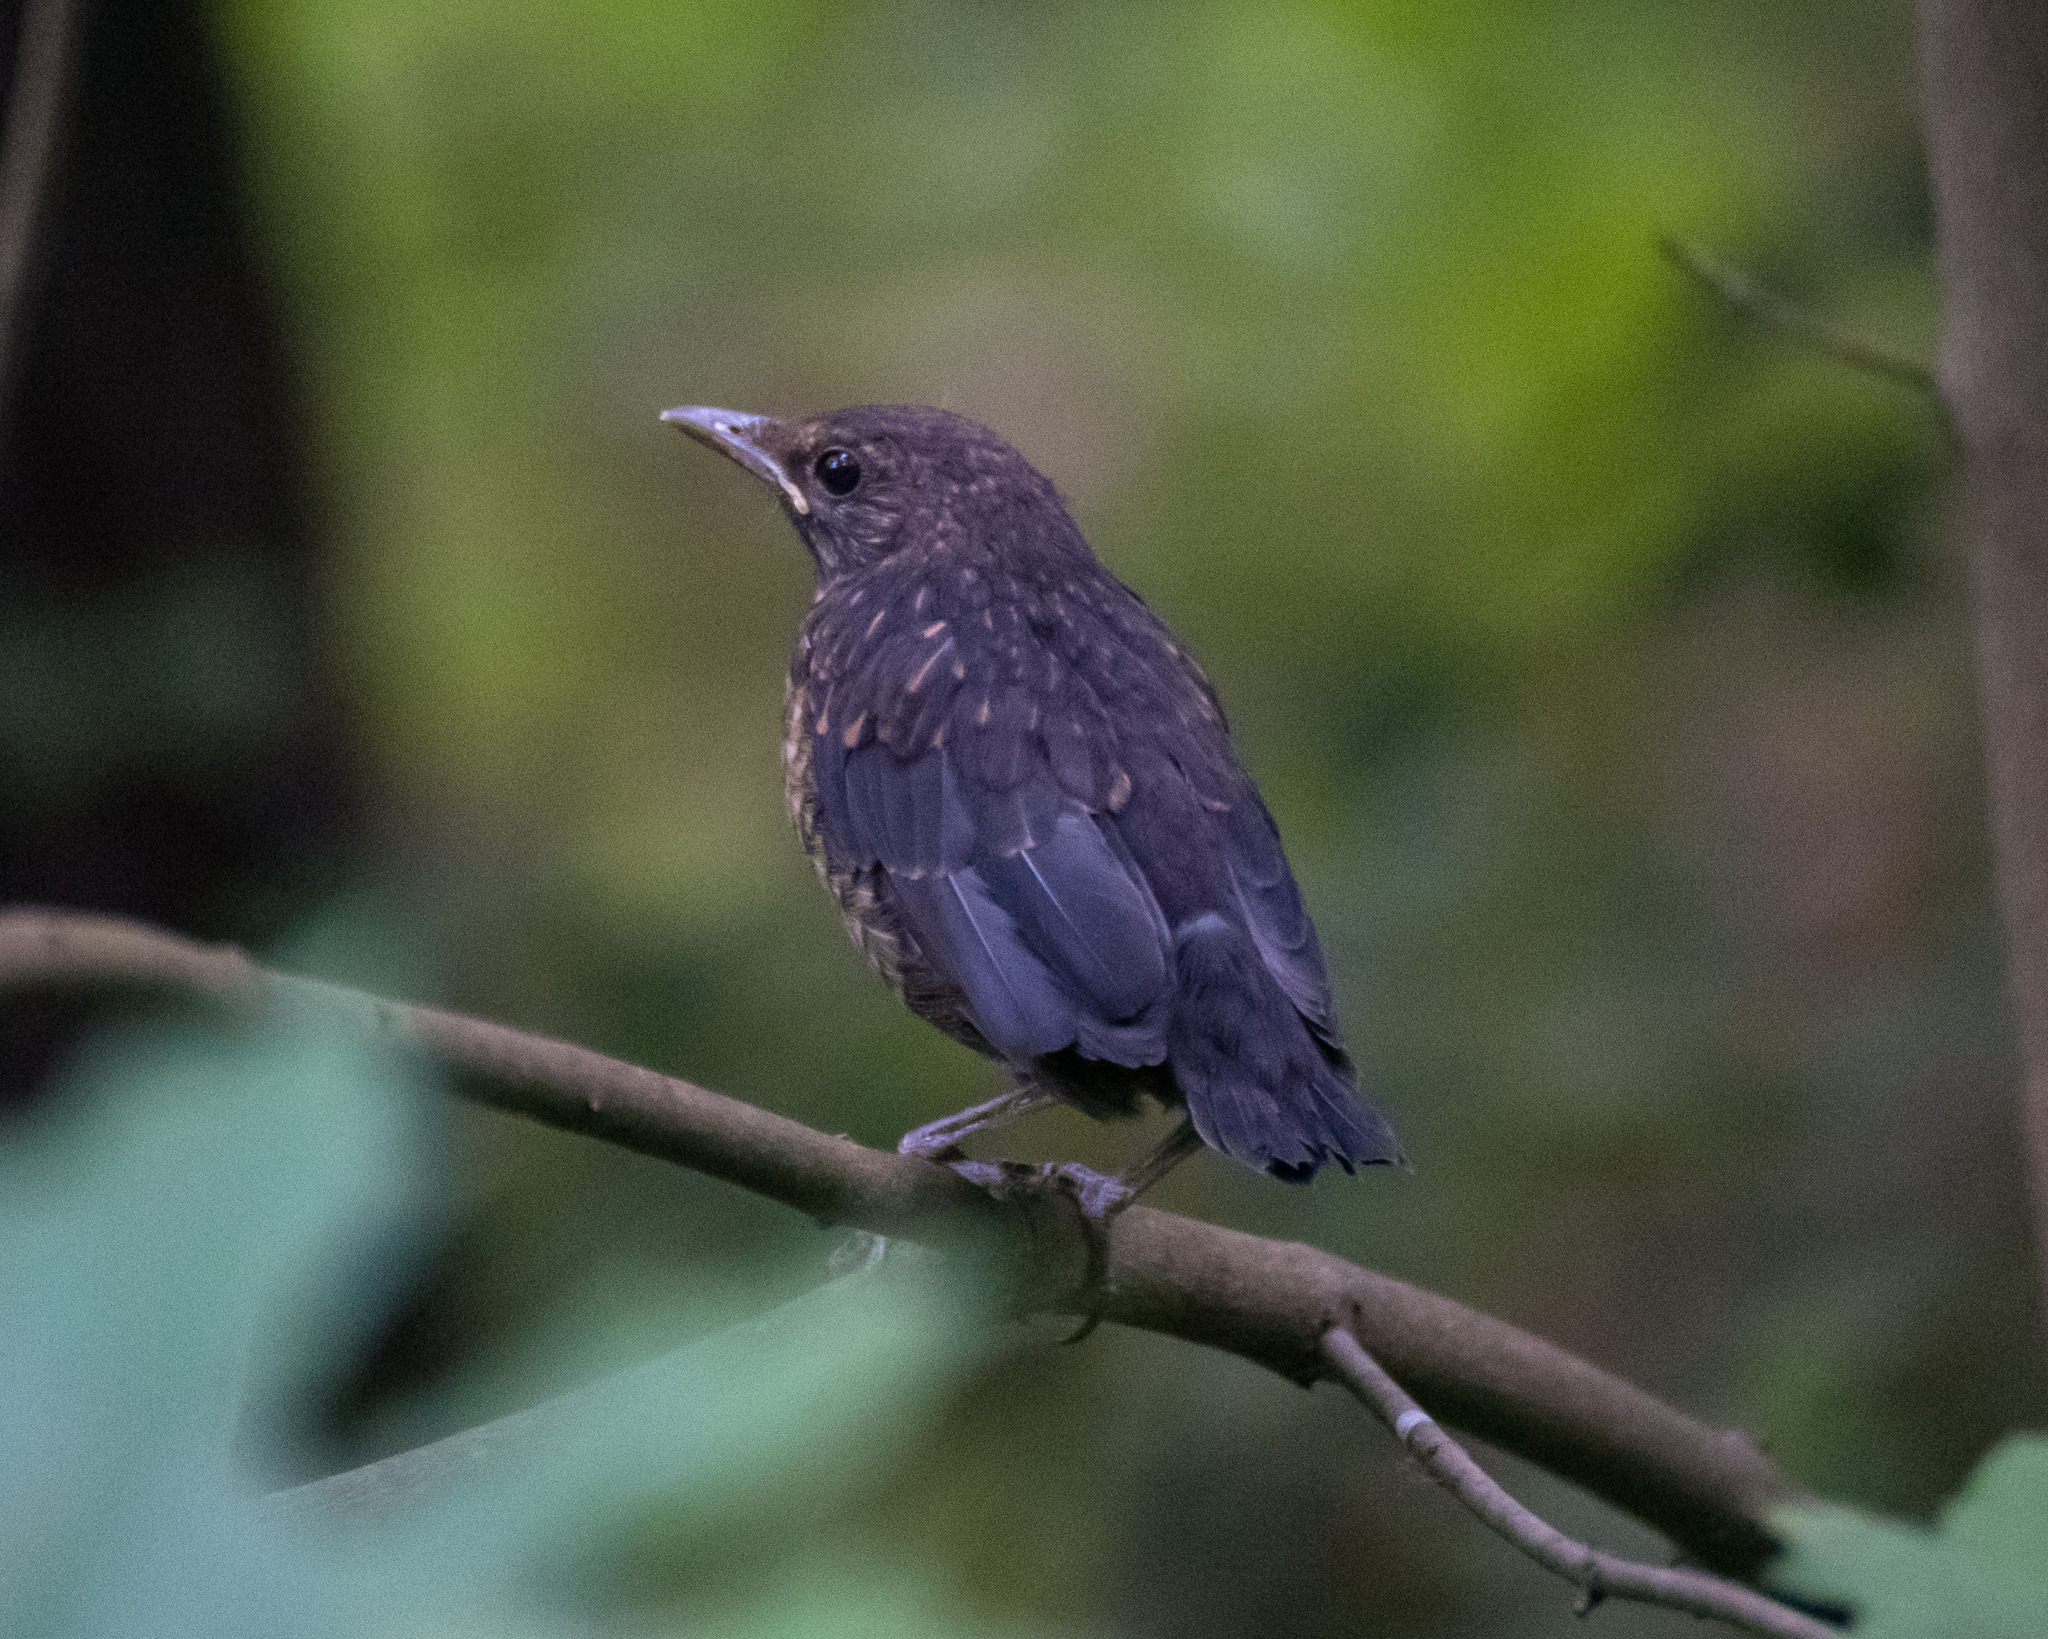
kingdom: Animalia
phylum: Chordata
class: Aves
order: Passeriformes
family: Turdidae
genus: Turdus
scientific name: Turdus merula
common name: Common blackbird
